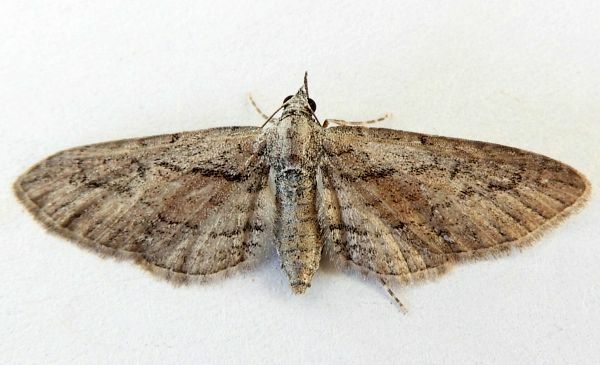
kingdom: Animalia
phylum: Arthropoda
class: Insecta
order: Lepidoptera
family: Geometridae
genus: Eupithecia
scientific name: Eupithecia placidata
